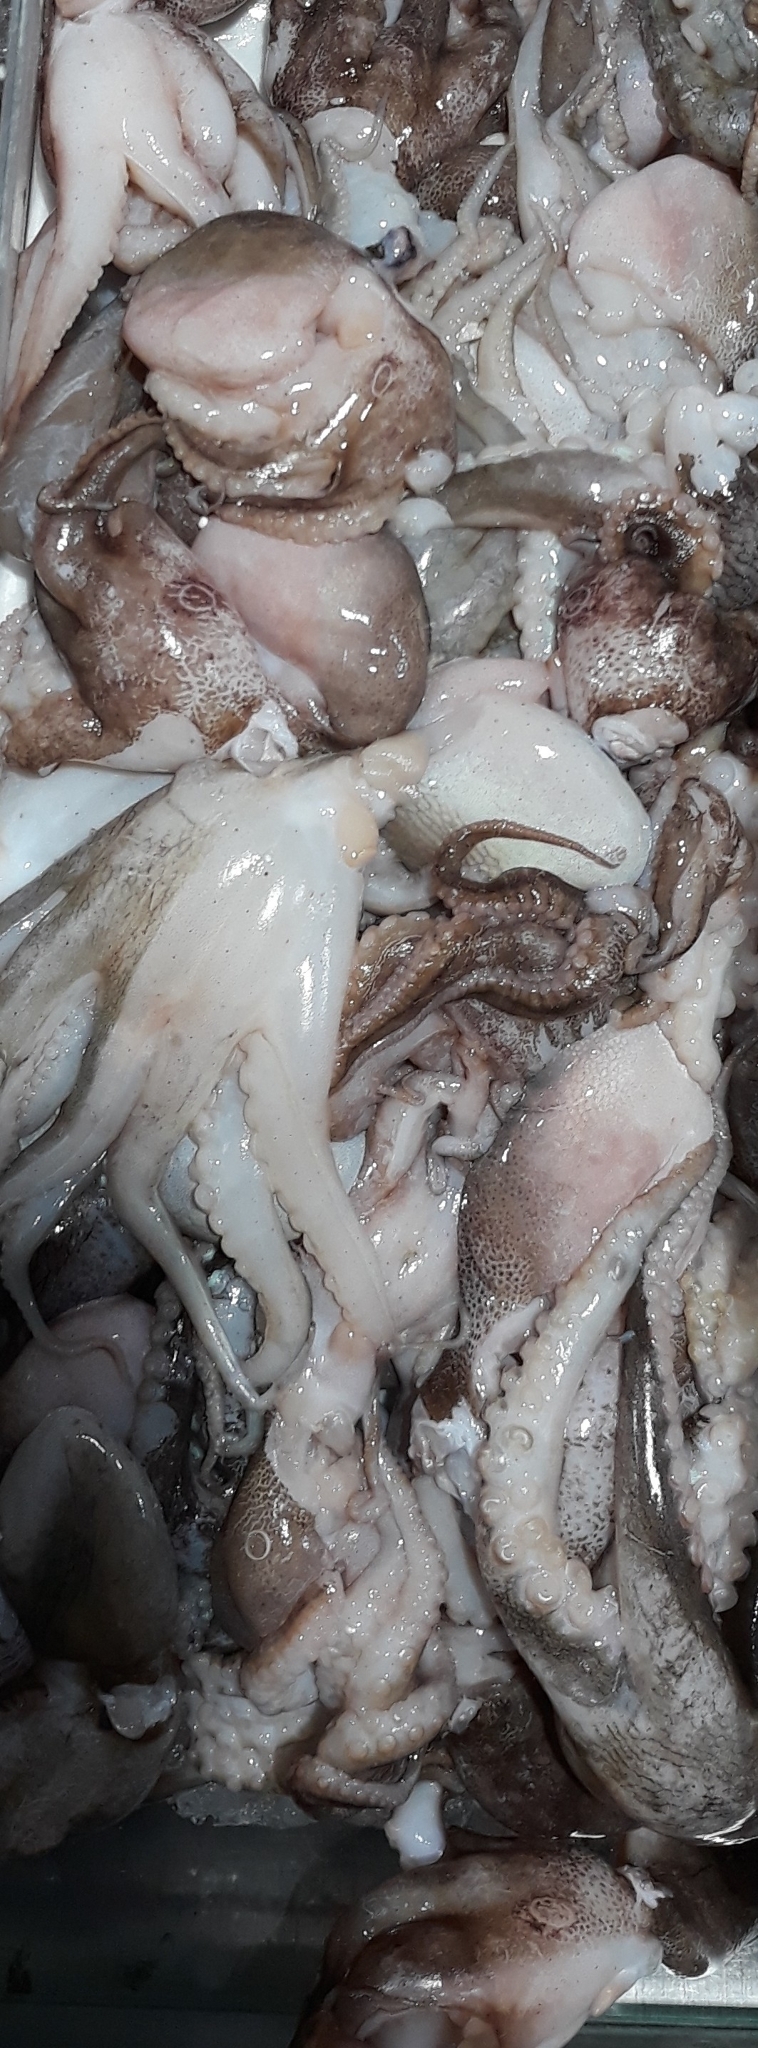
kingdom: Animalia
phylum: Mollusca
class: Cephalopoda
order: Octopoda
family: Octopodidae
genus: Amphioctopus
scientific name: Amphioctopus membranaceus
